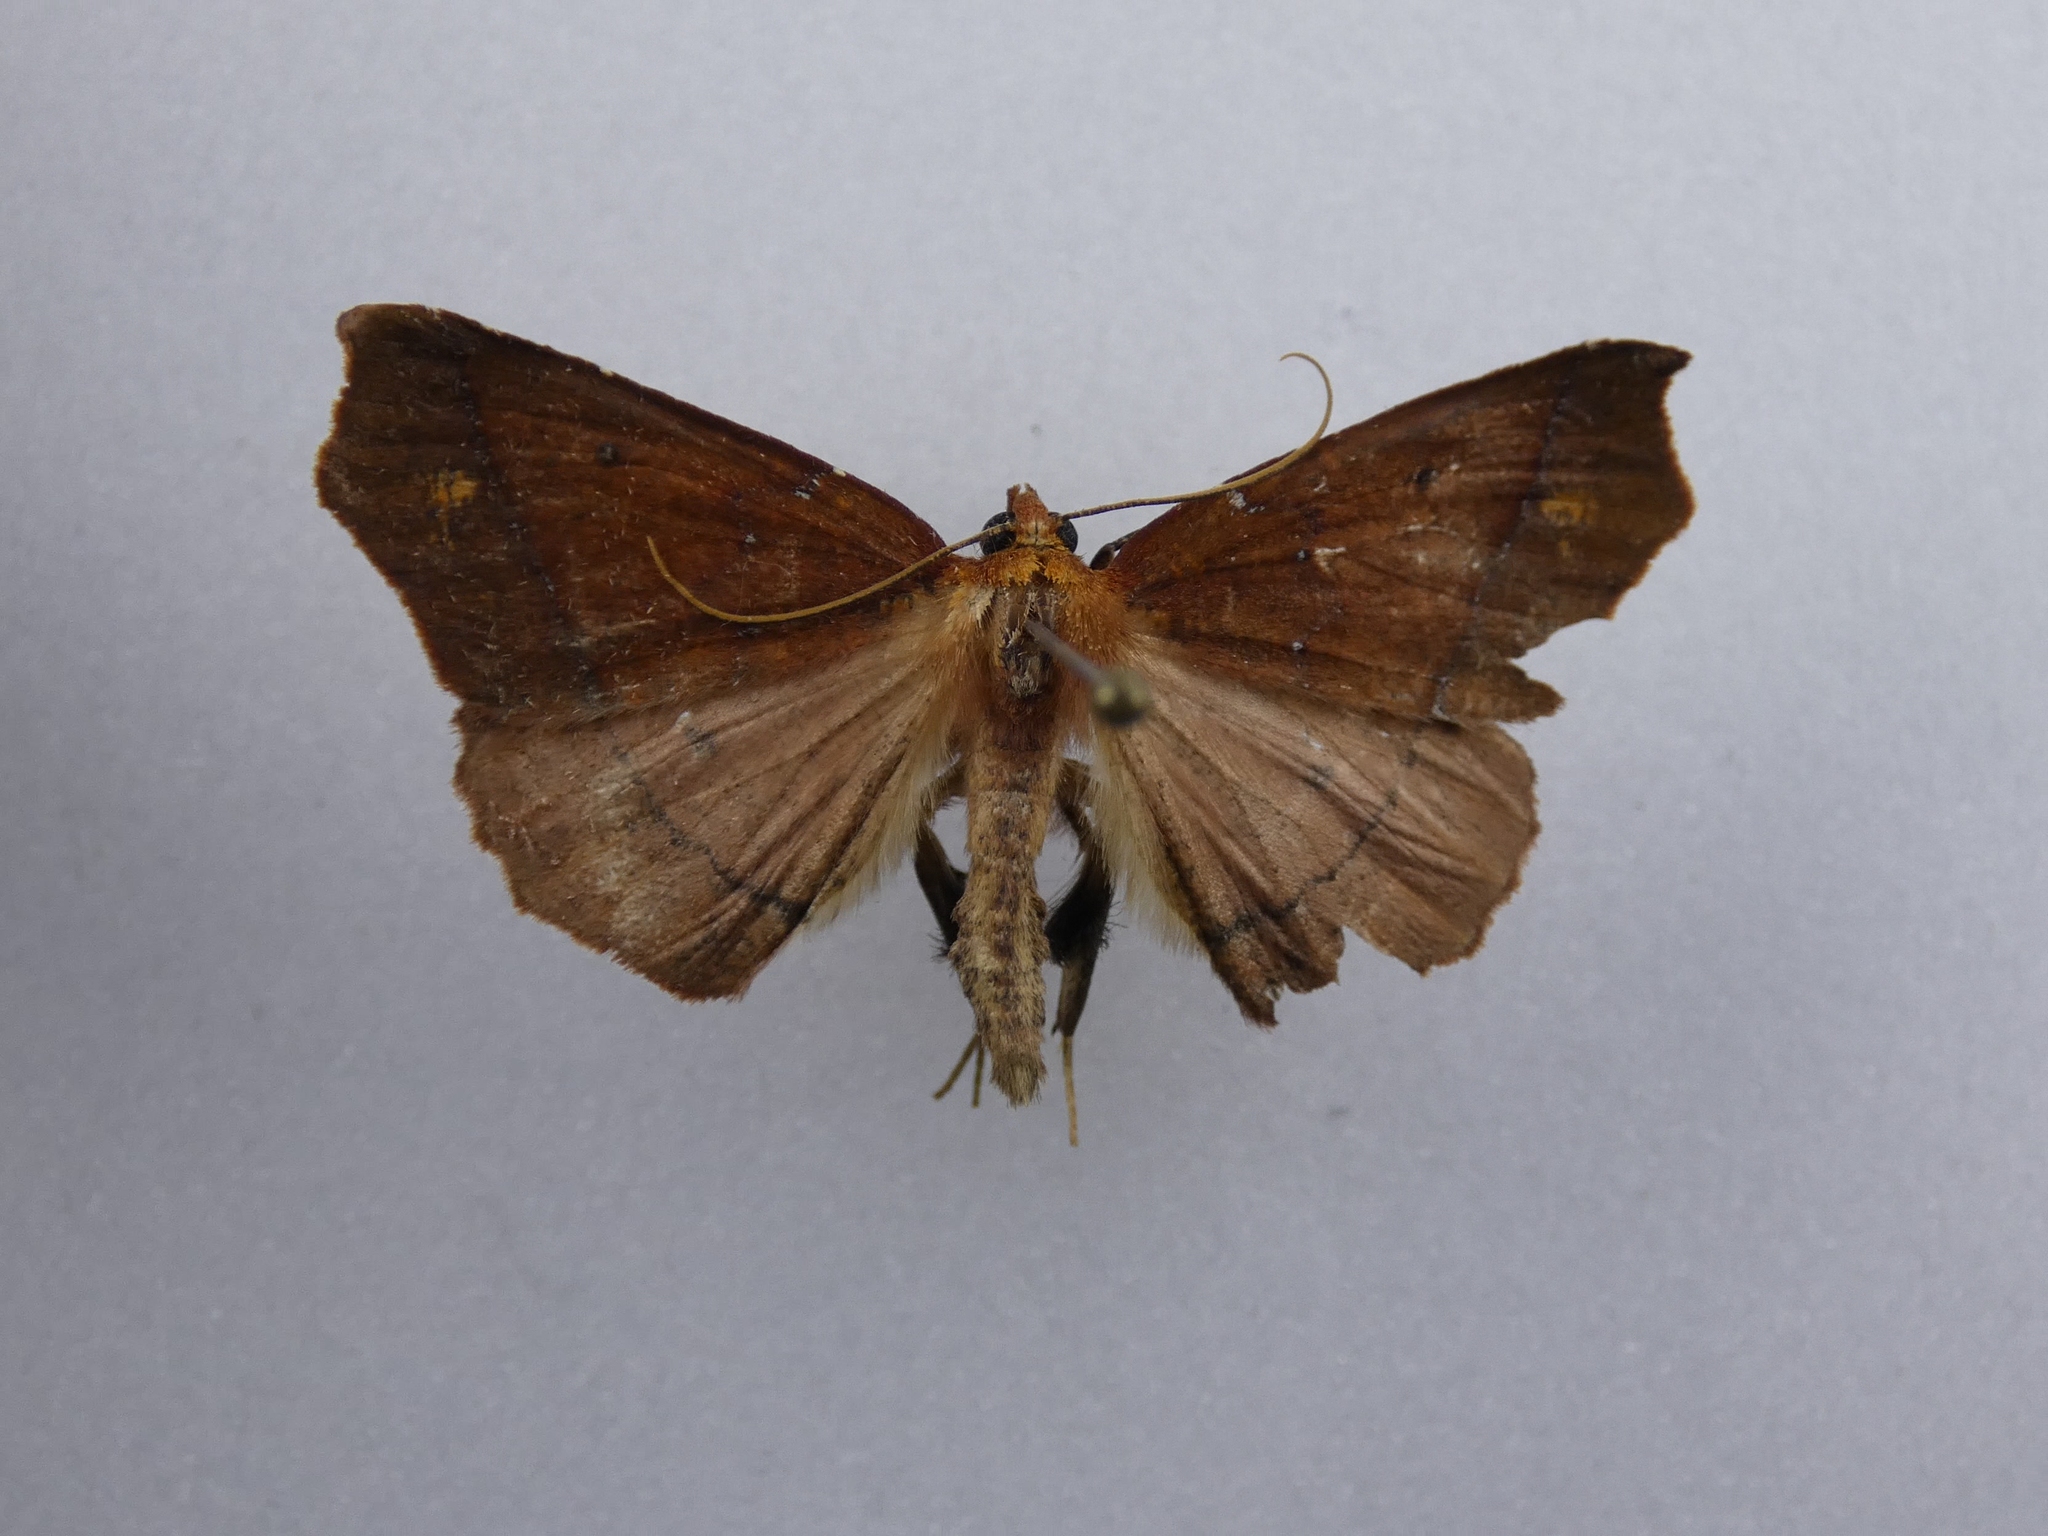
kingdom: Animalia
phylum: Arthropoda
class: Insecta
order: Lepidoptera
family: Geometridae
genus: Ischalis
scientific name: Ischalis nelsonaria
